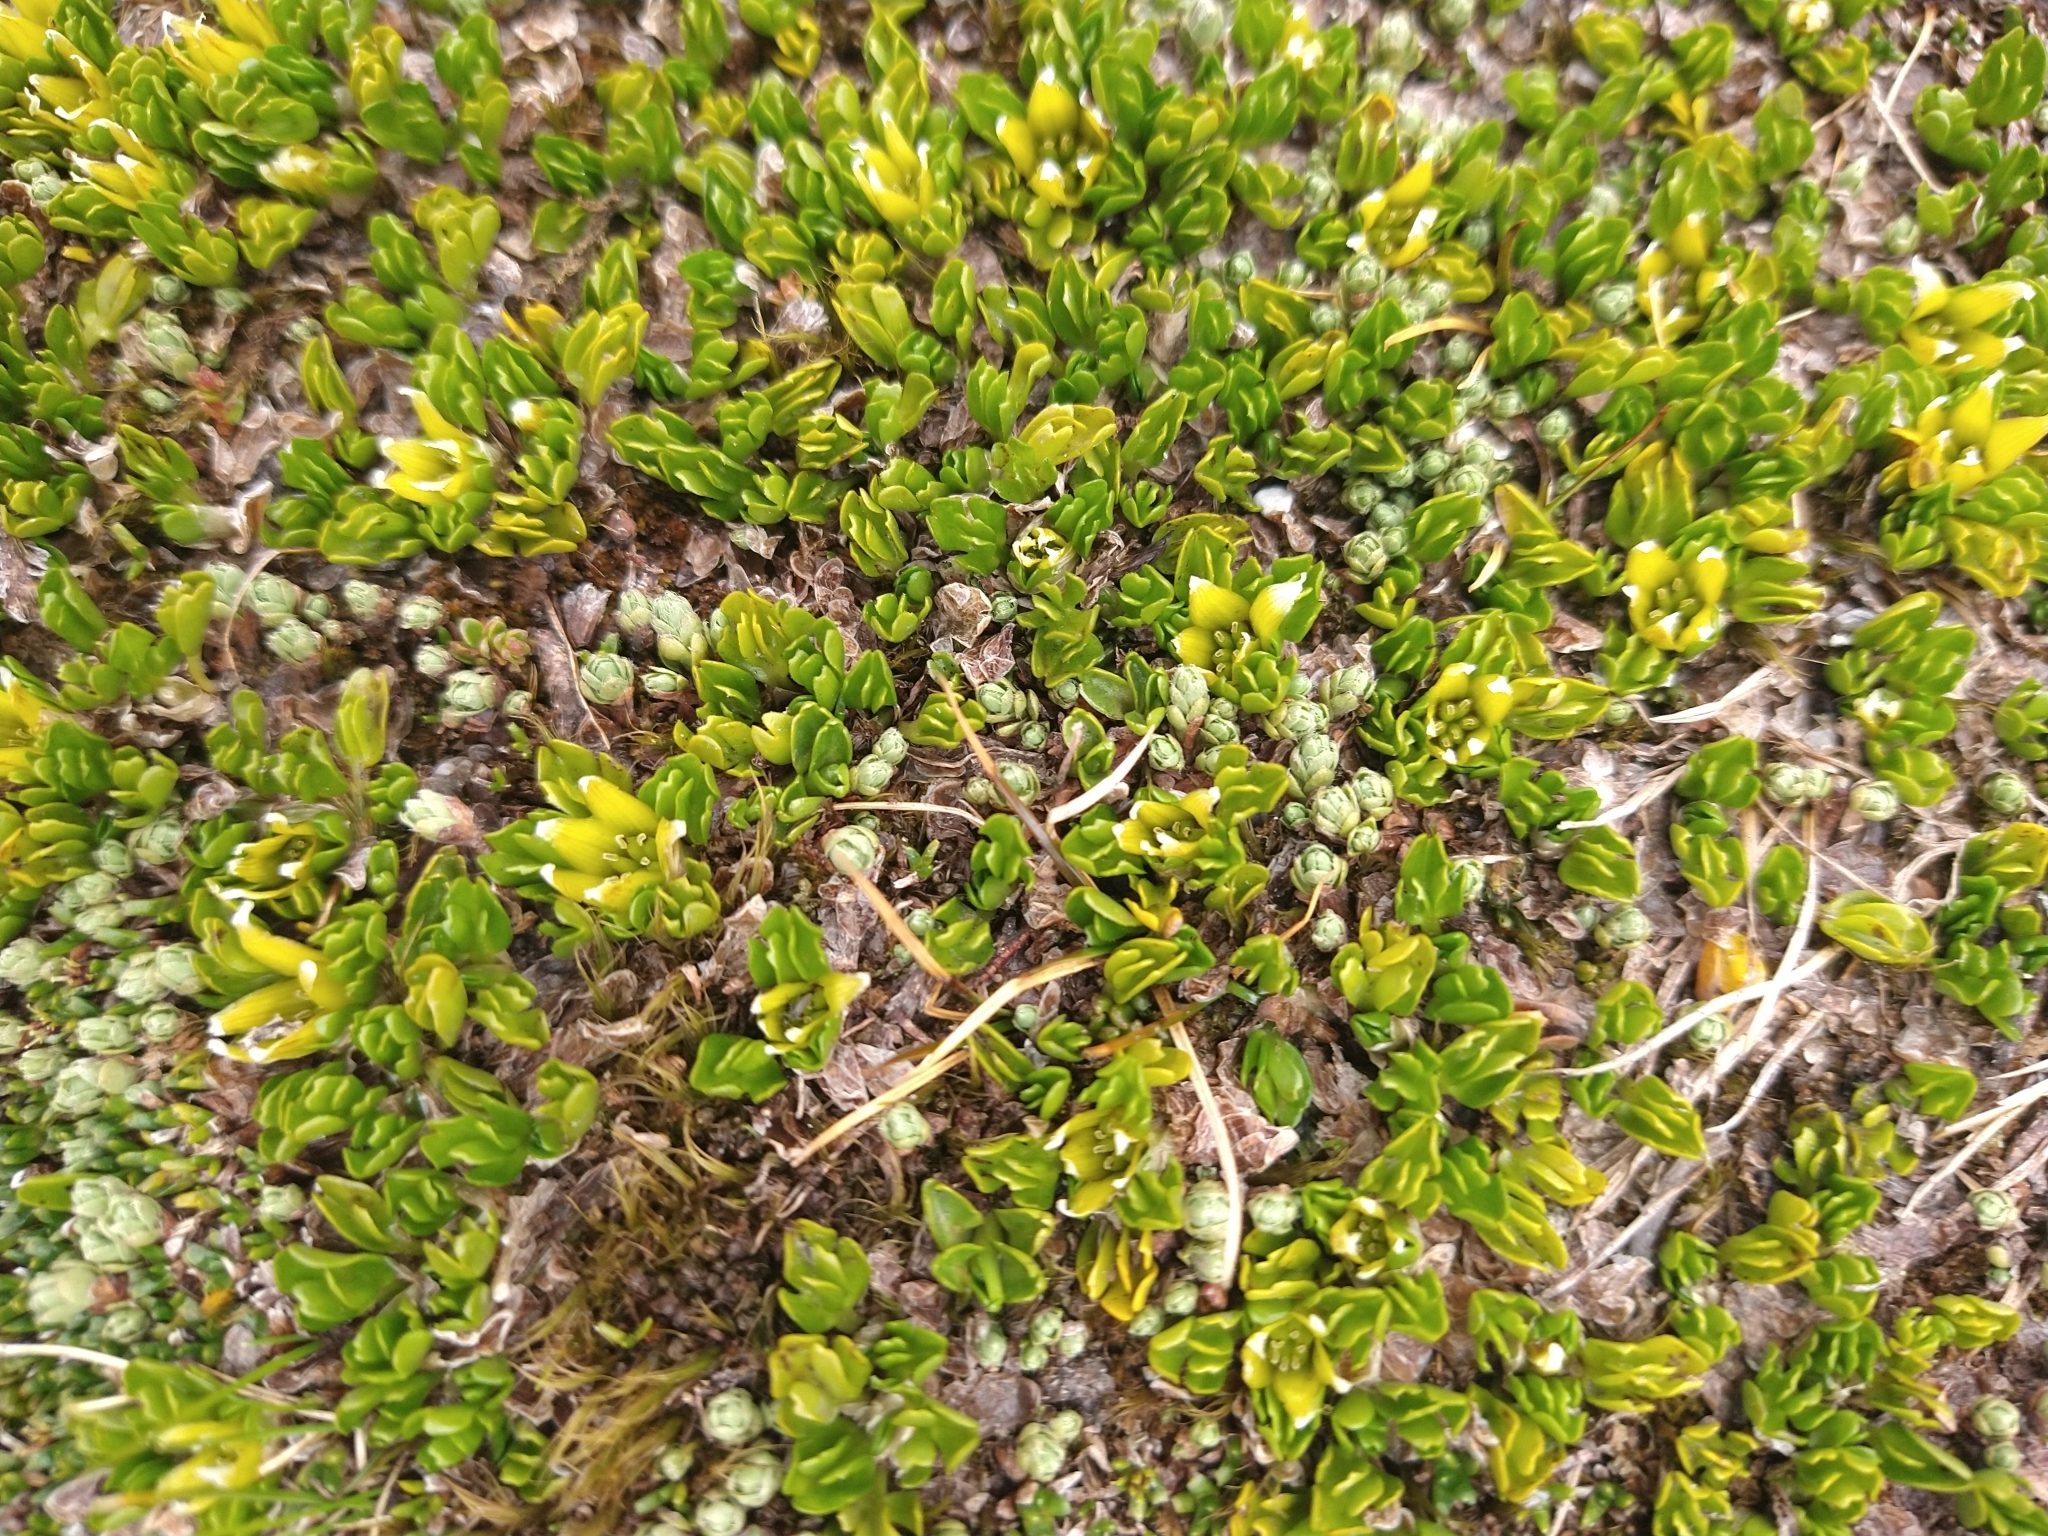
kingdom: Plantae
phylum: Tracheophyta
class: Magnoliopsida
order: Malvales
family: Thymelaeaceae
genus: Drapetes
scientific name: Drapetes muscosus
